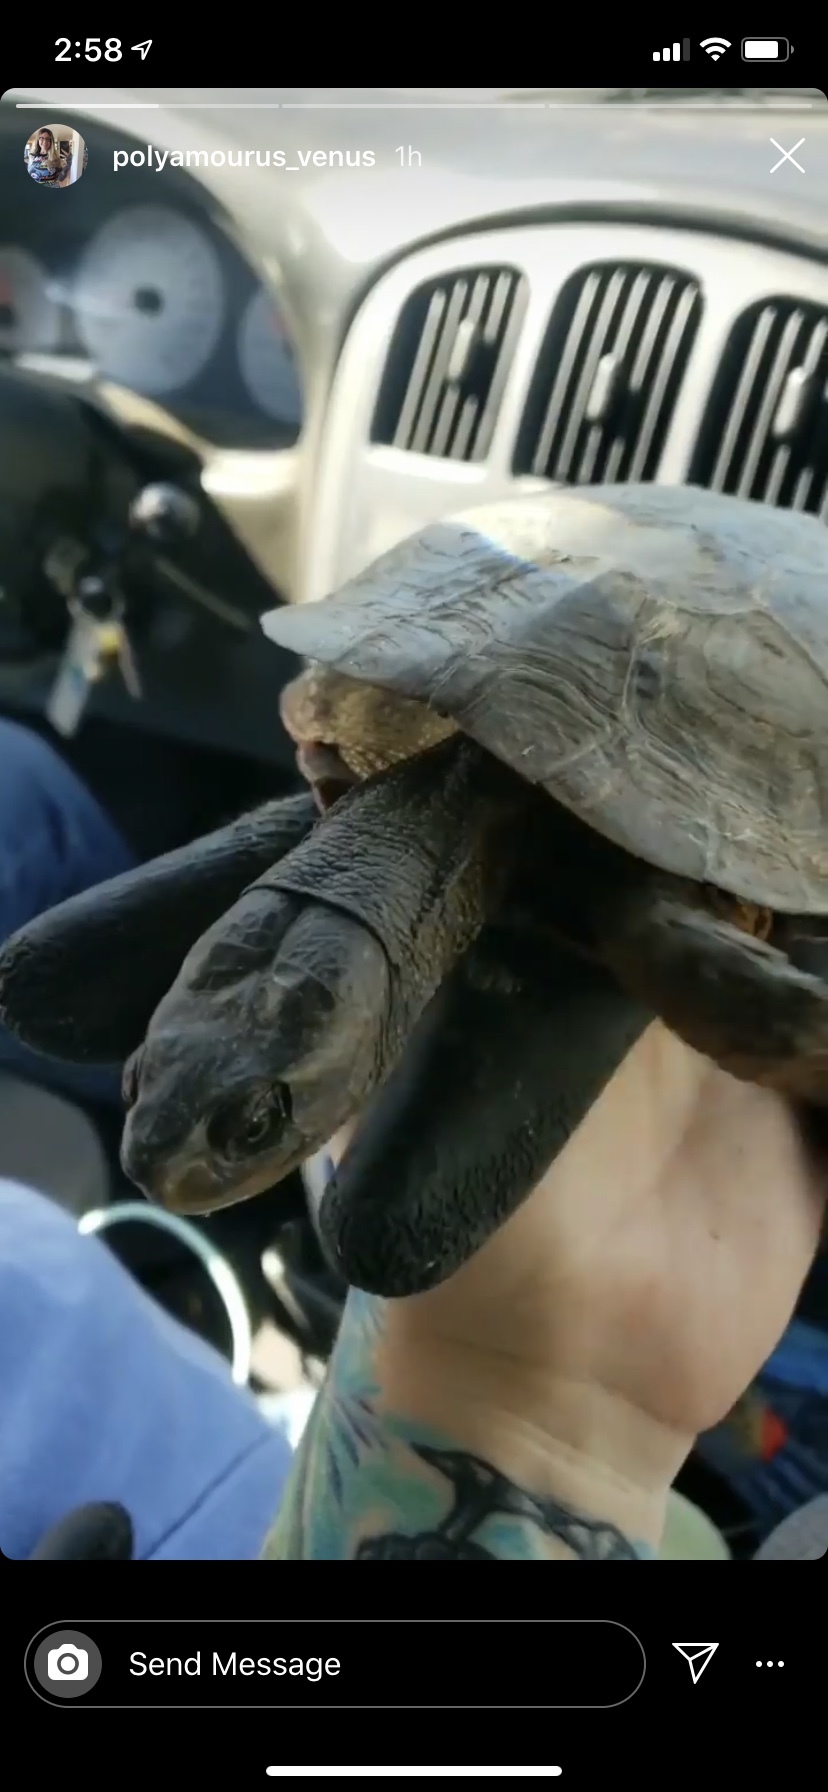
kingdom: Animalia
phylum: Chordata
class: Testudines
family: Emydidae
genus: Actinemys
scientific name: Actinemys marmorata
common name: Western pond turtle
